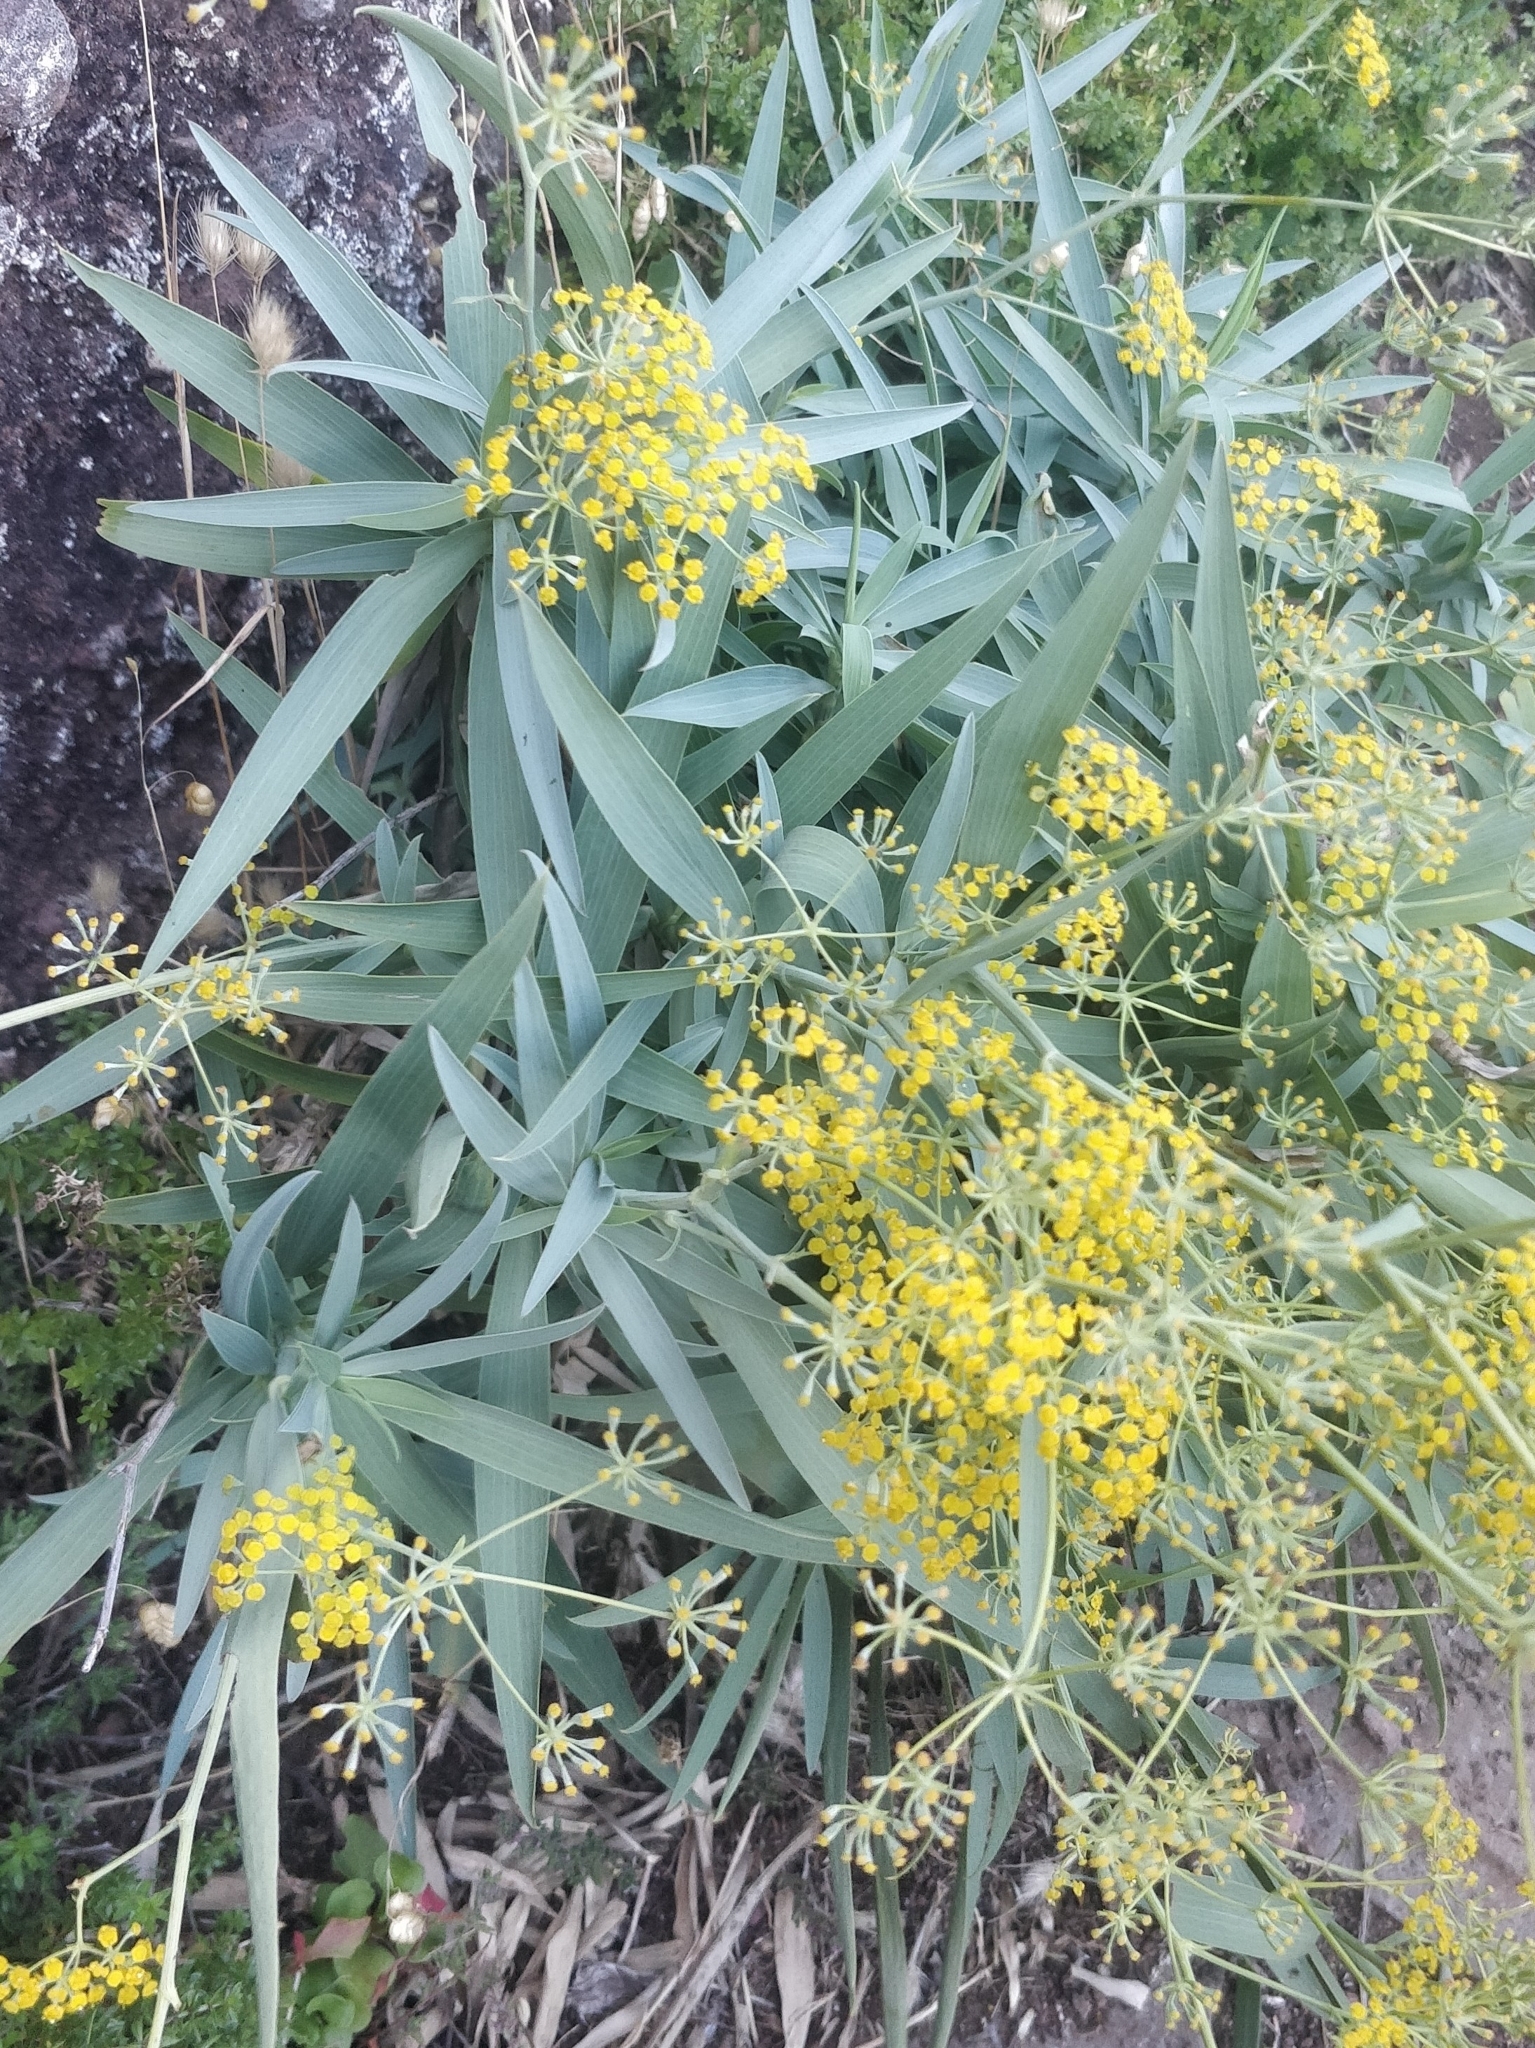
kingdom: Plantae
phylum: Tracheophyta
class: Magnoliopsida
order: Apiales
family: Apiaceae
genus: Bupleurum
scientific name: Bupleurum salicifolium
